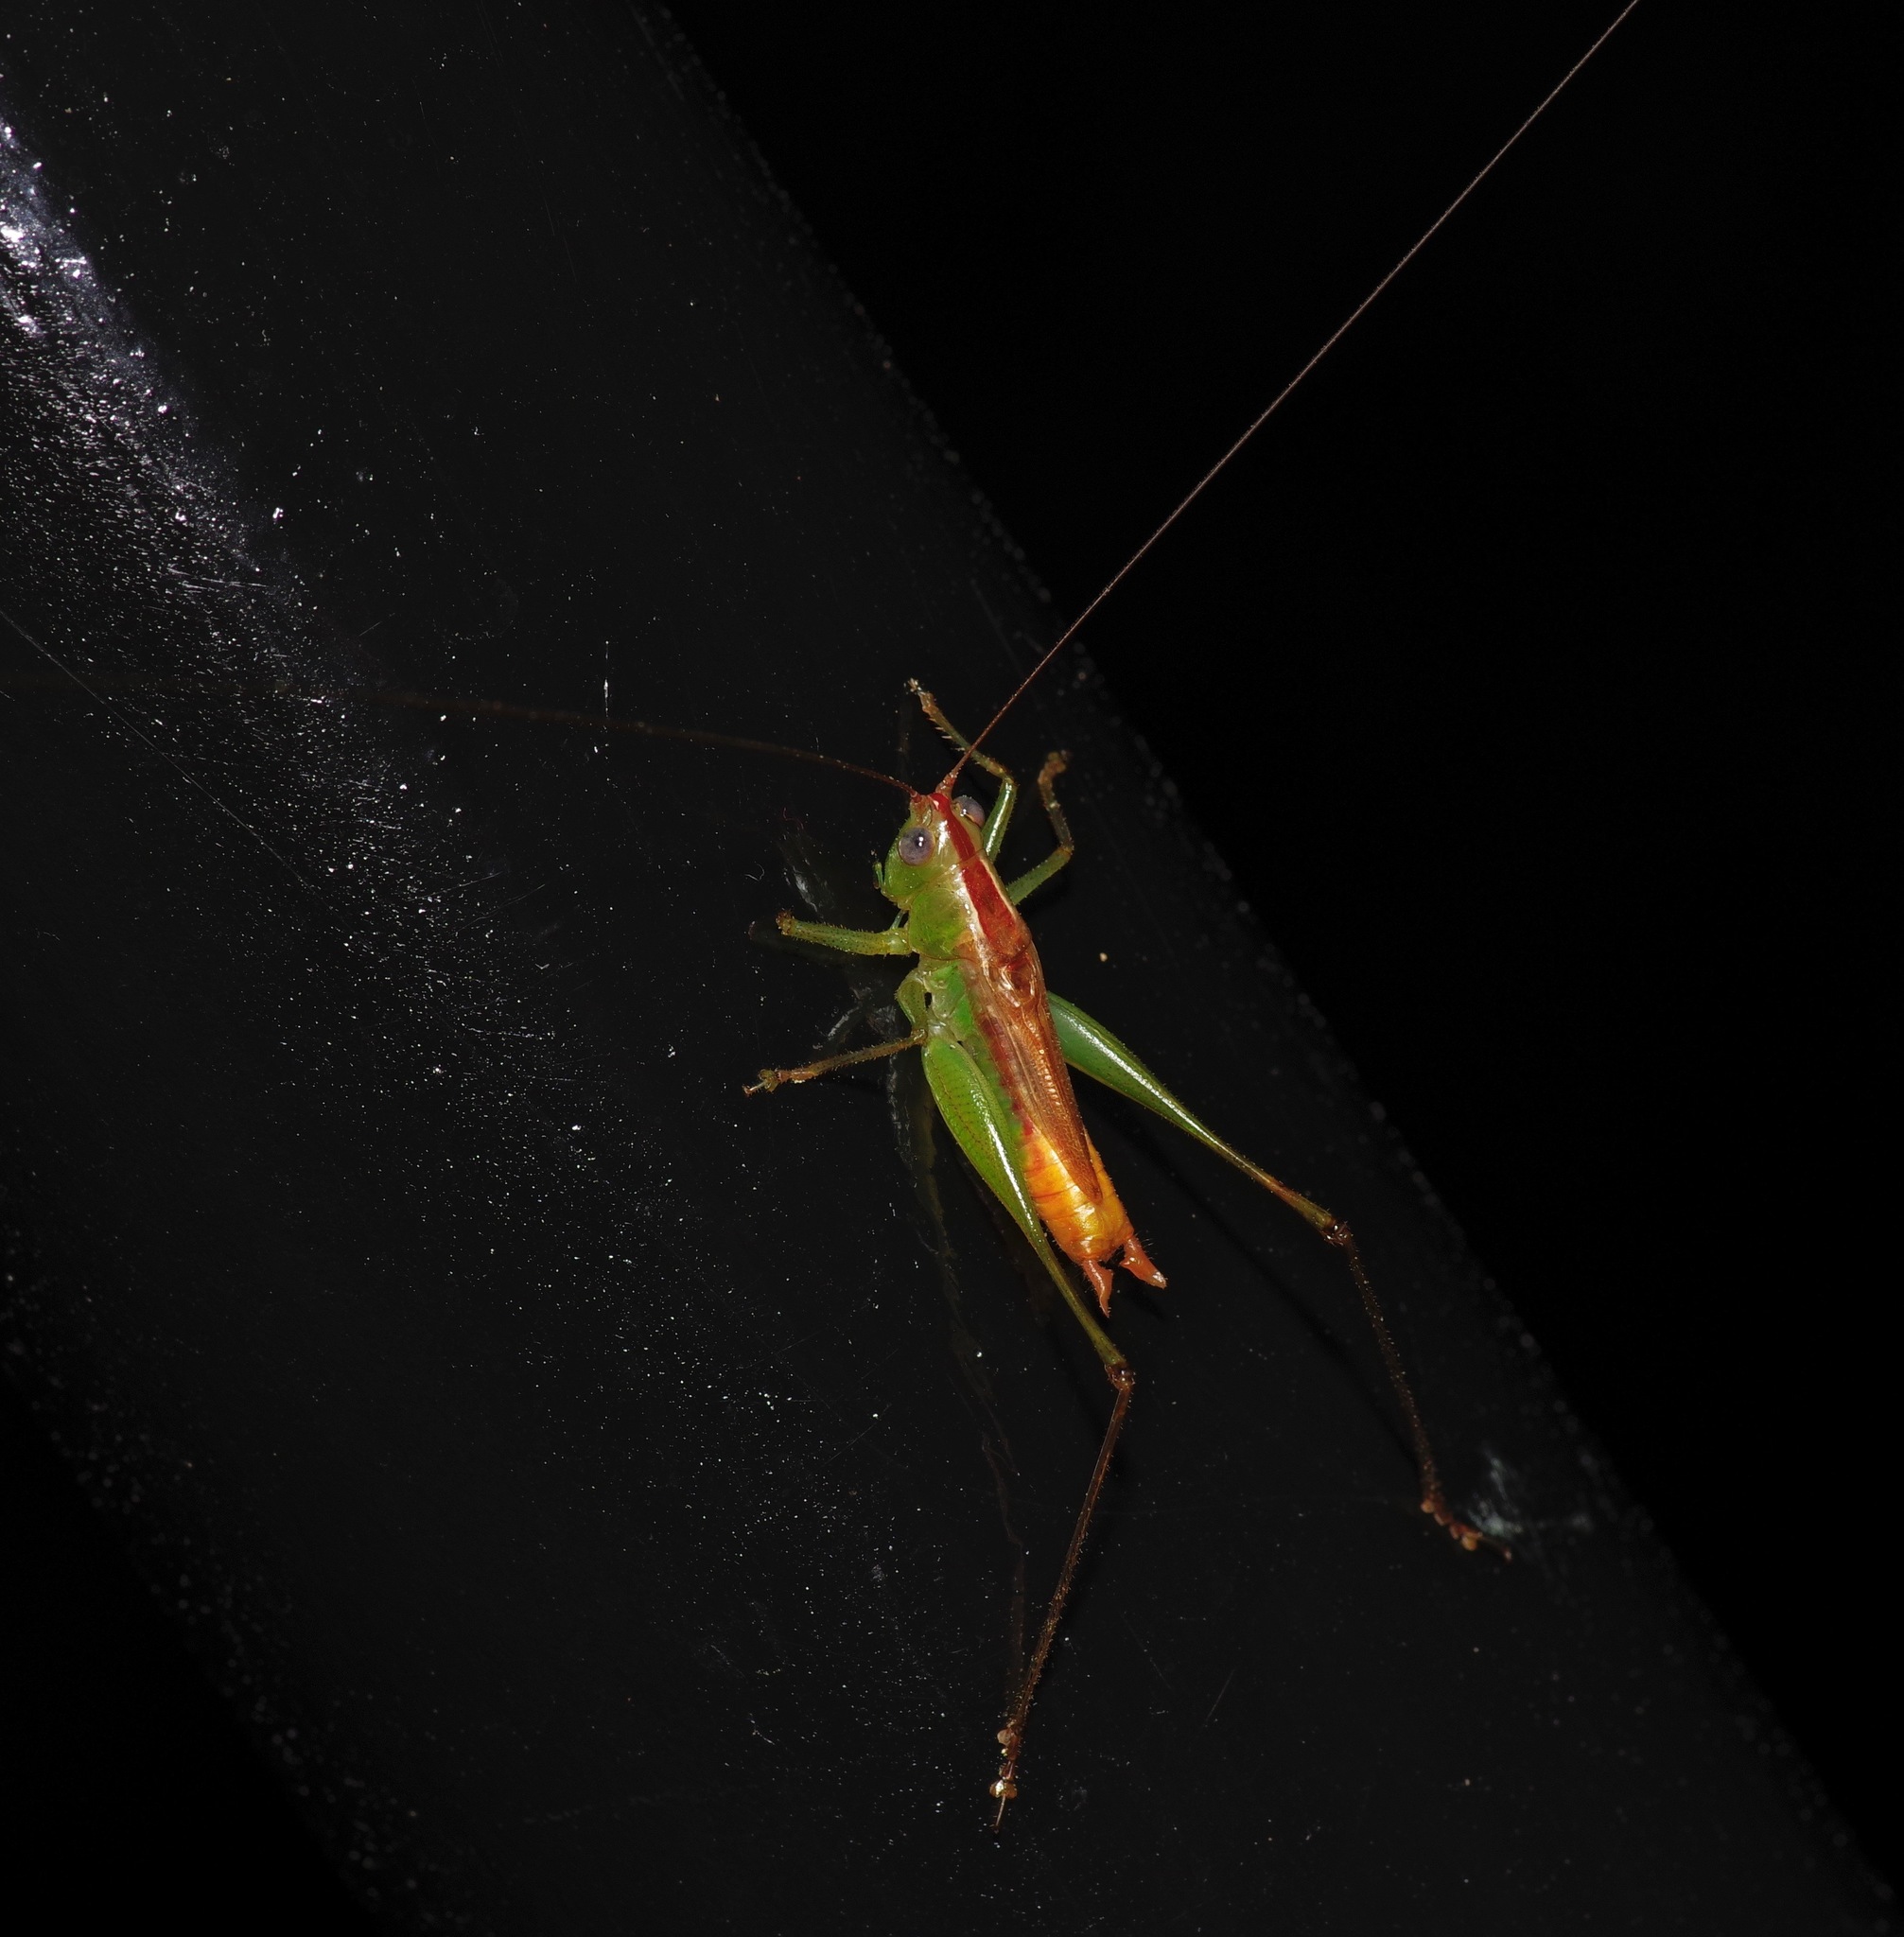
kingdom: Animalia
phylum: Arthropoda
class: Insecta
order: Orthoptera
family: Tettigoniidae
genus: Conocephalus
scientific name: Conocephalus brevipennis
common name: Short-winged meadow katydid
